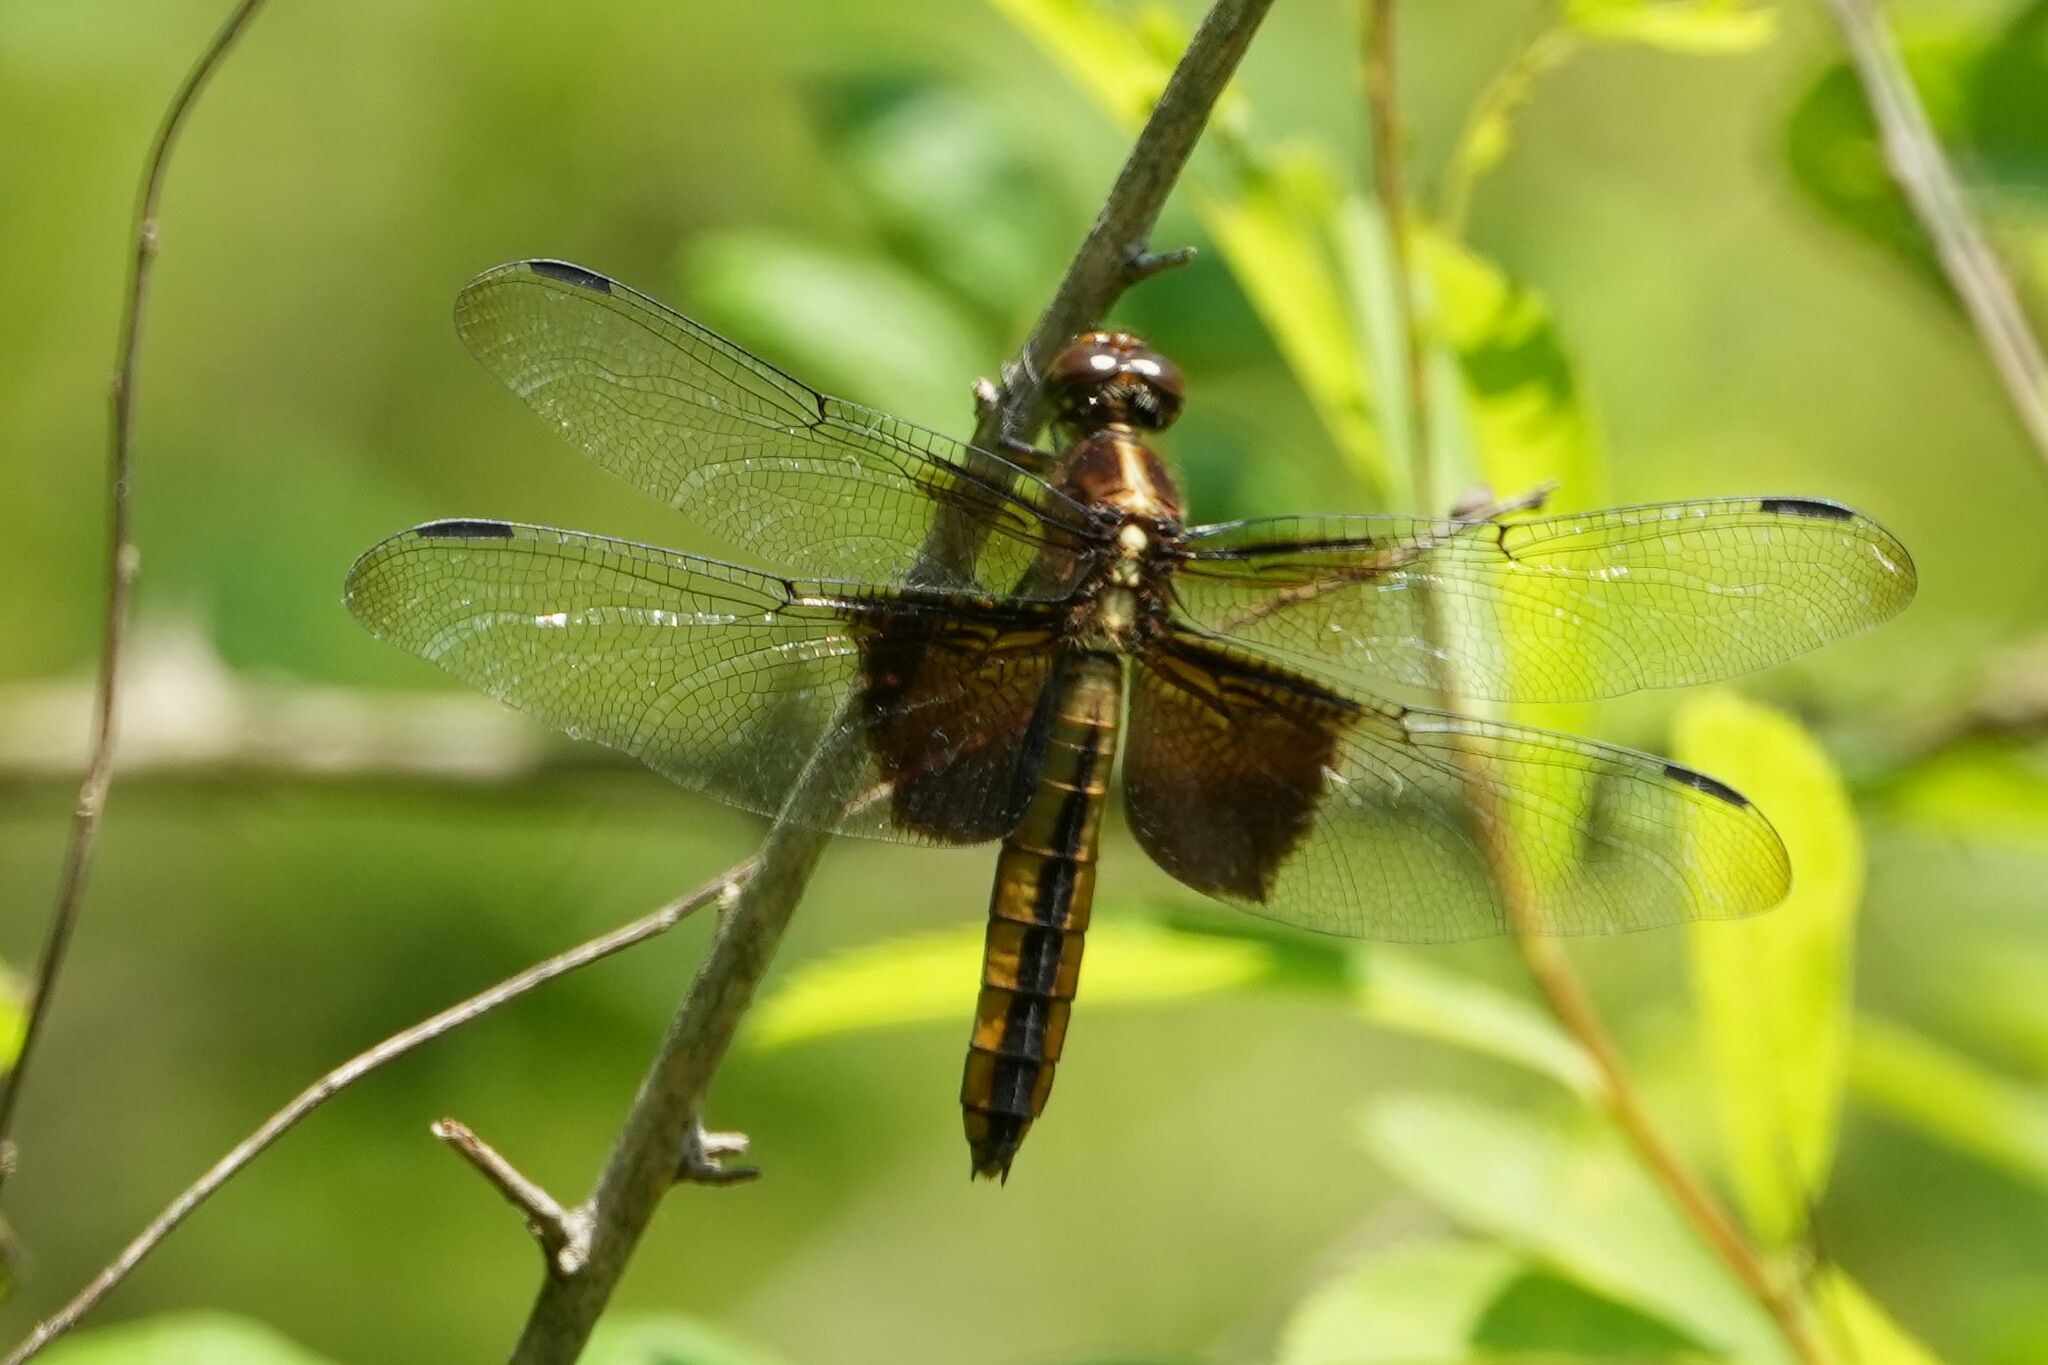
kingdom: Animalia
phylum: Arthropoda
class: Insecta
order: Odonata
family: Libellulidae
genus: Libellula
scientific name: Libellula luctuosa
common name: Widow skimmer
